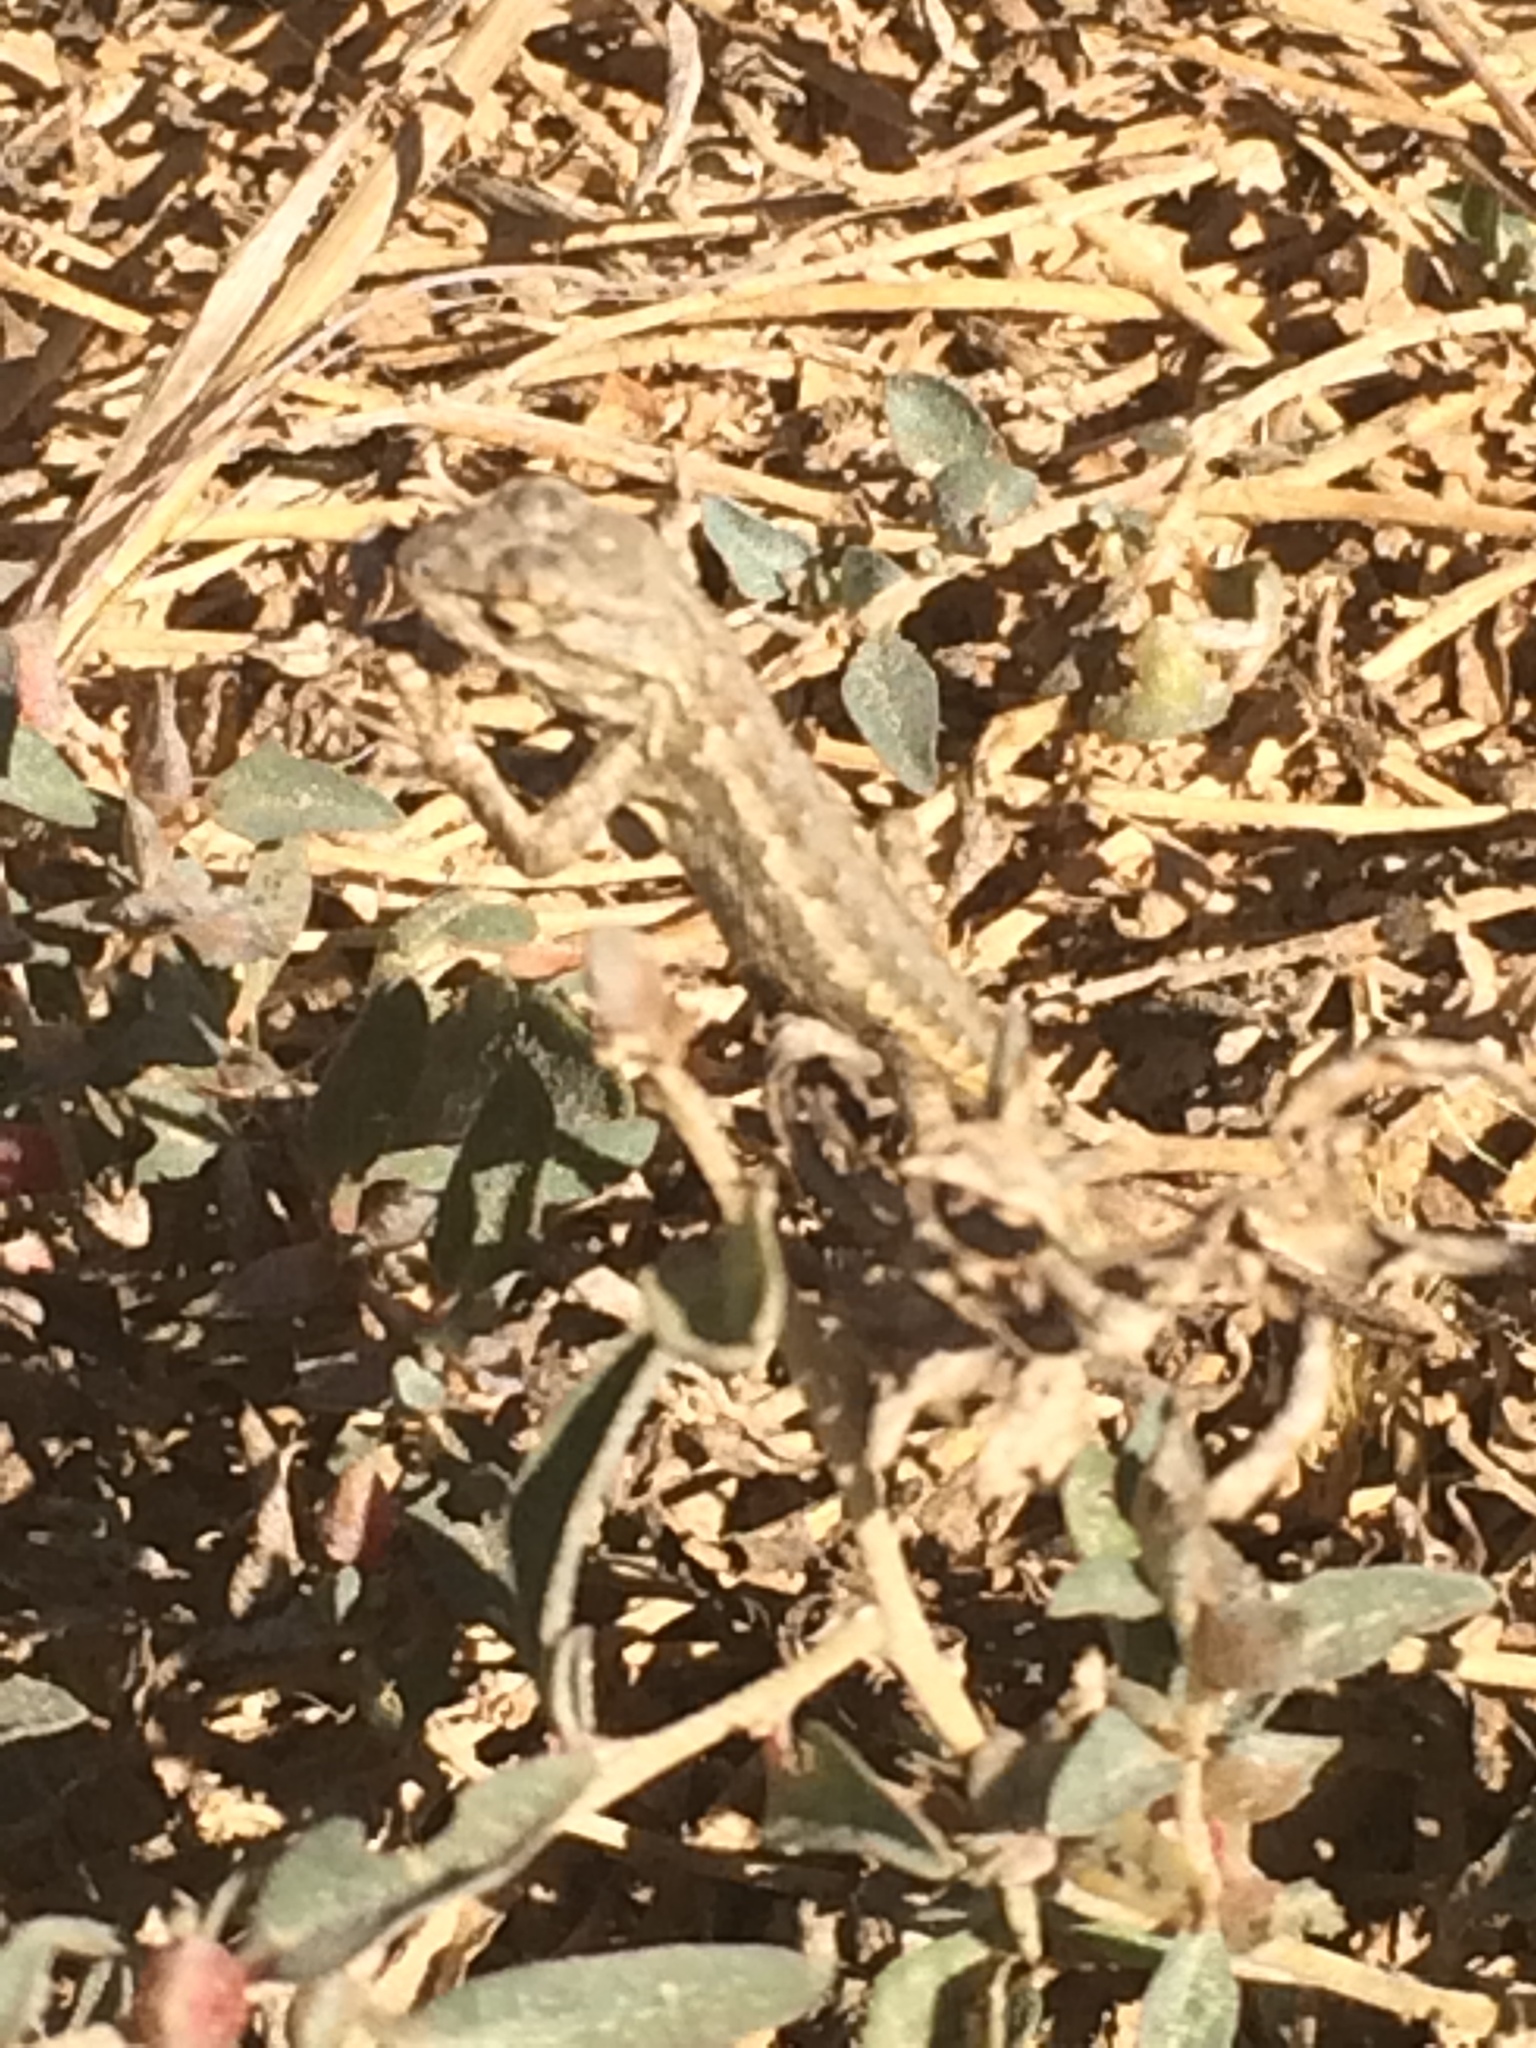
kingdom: Animalia
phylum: Chordata
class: Squamata
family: Phrynosomatidae
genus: Sceloporus
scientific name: Sceloporus occidentalis
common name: Western fence lizard
